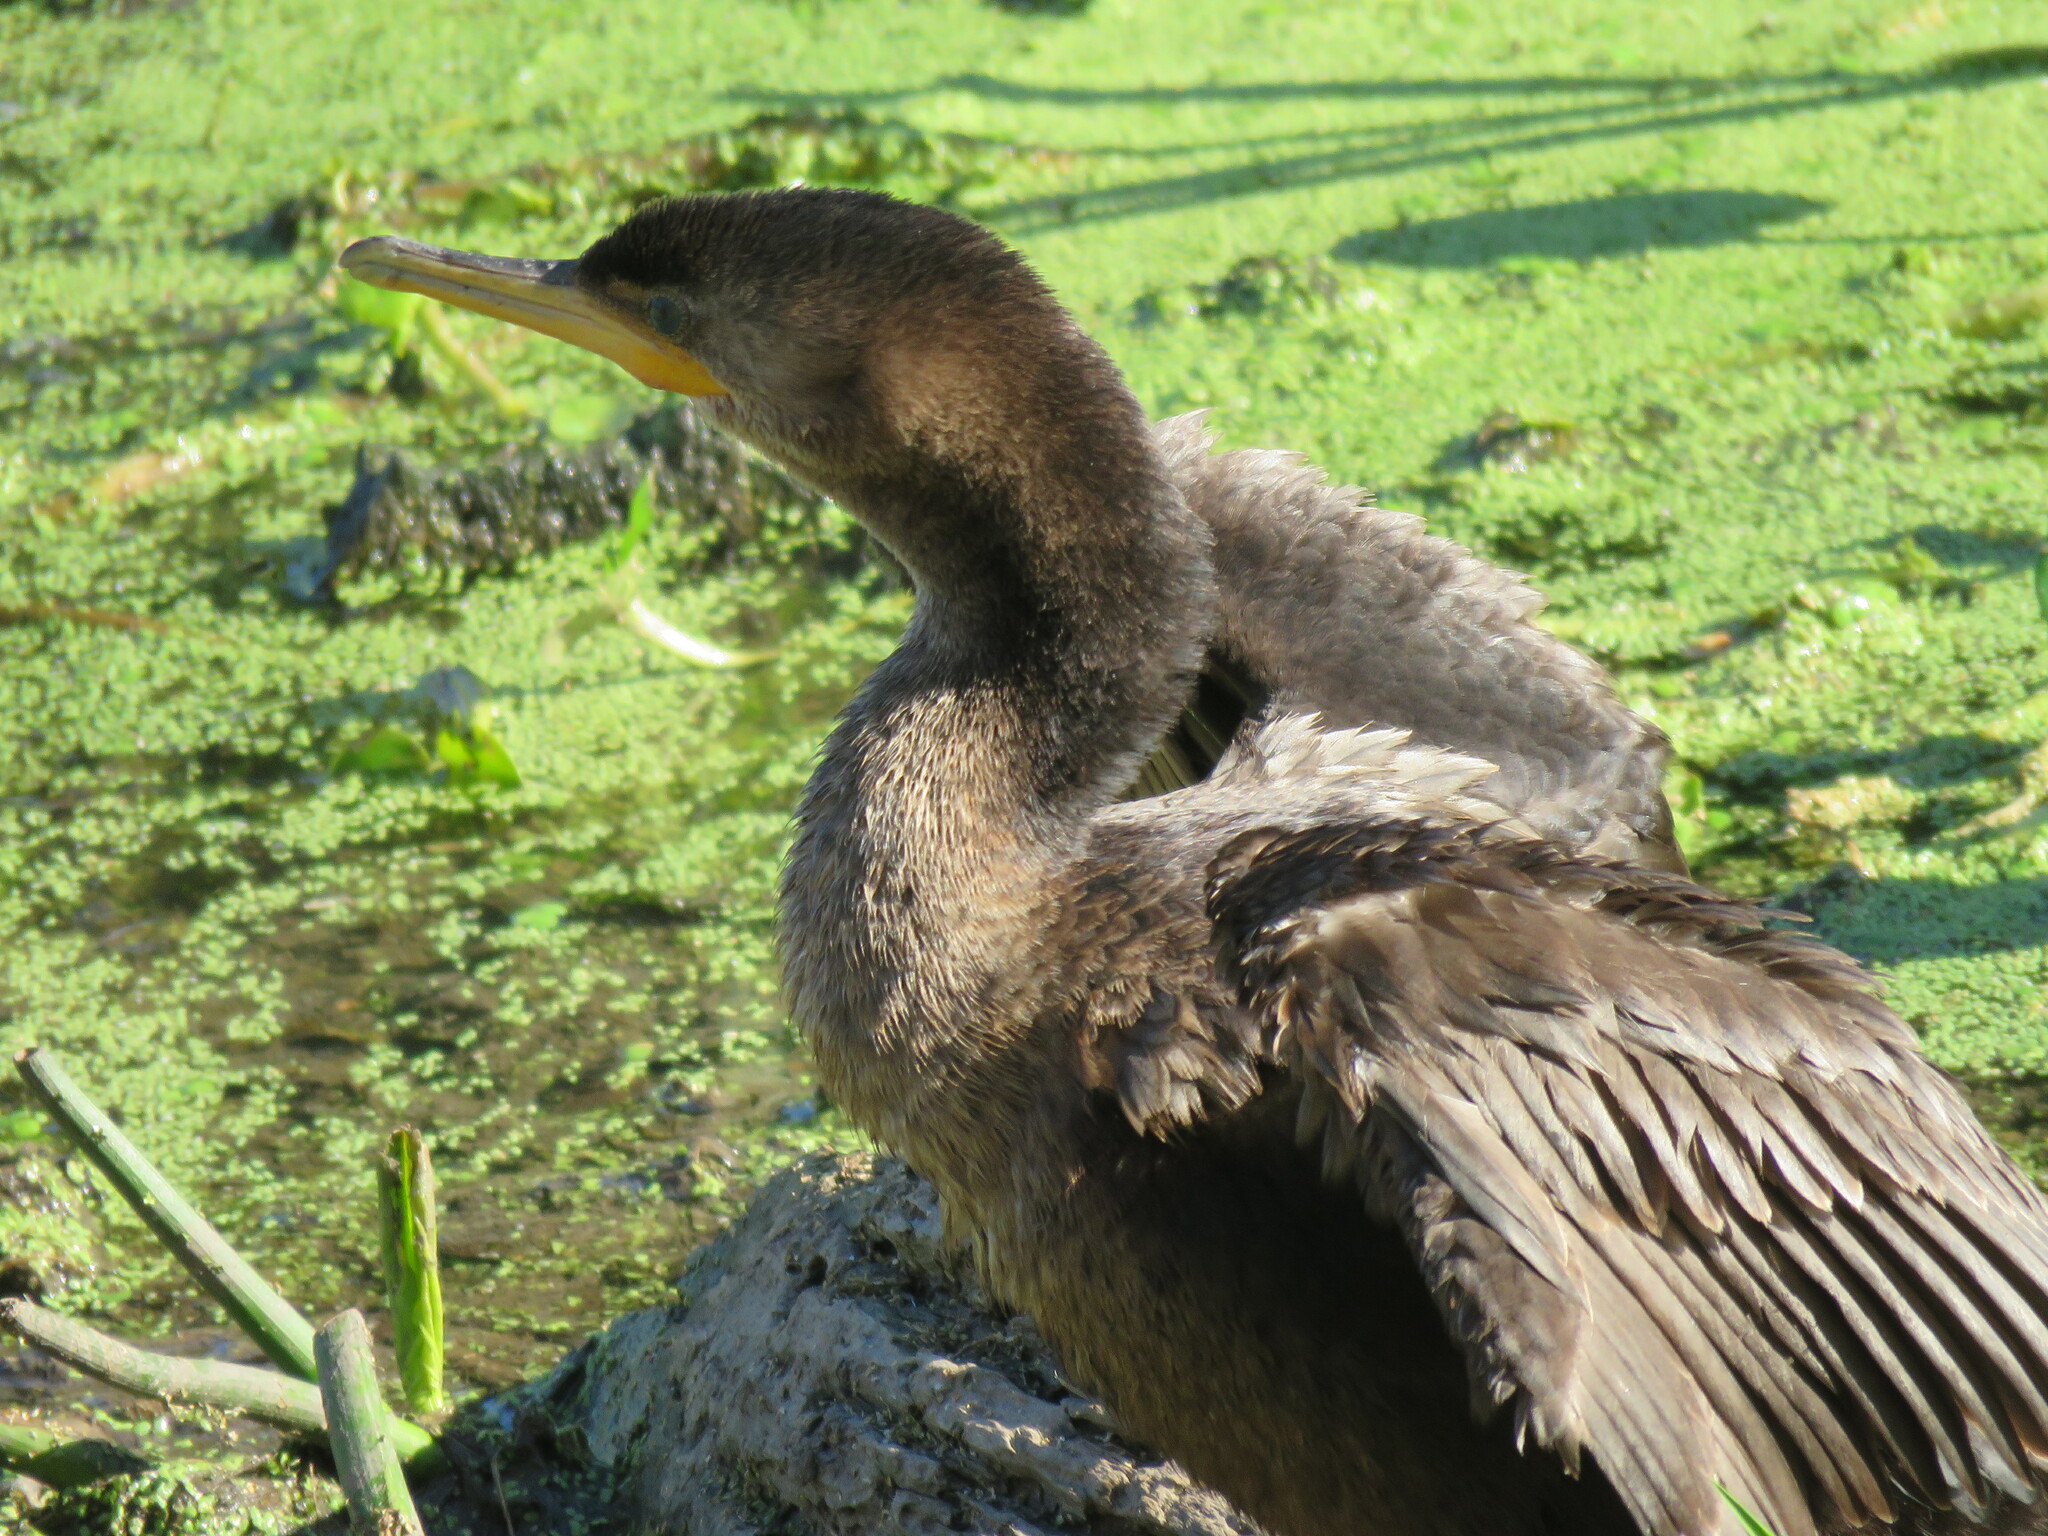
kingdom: Animalia
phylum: Chordata
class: Aves
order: Suliformes
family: Phalacrocoracidae
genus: Phalacrocorax
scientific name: Phalacrocorax brasilianus
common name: Neotropic cormorant
